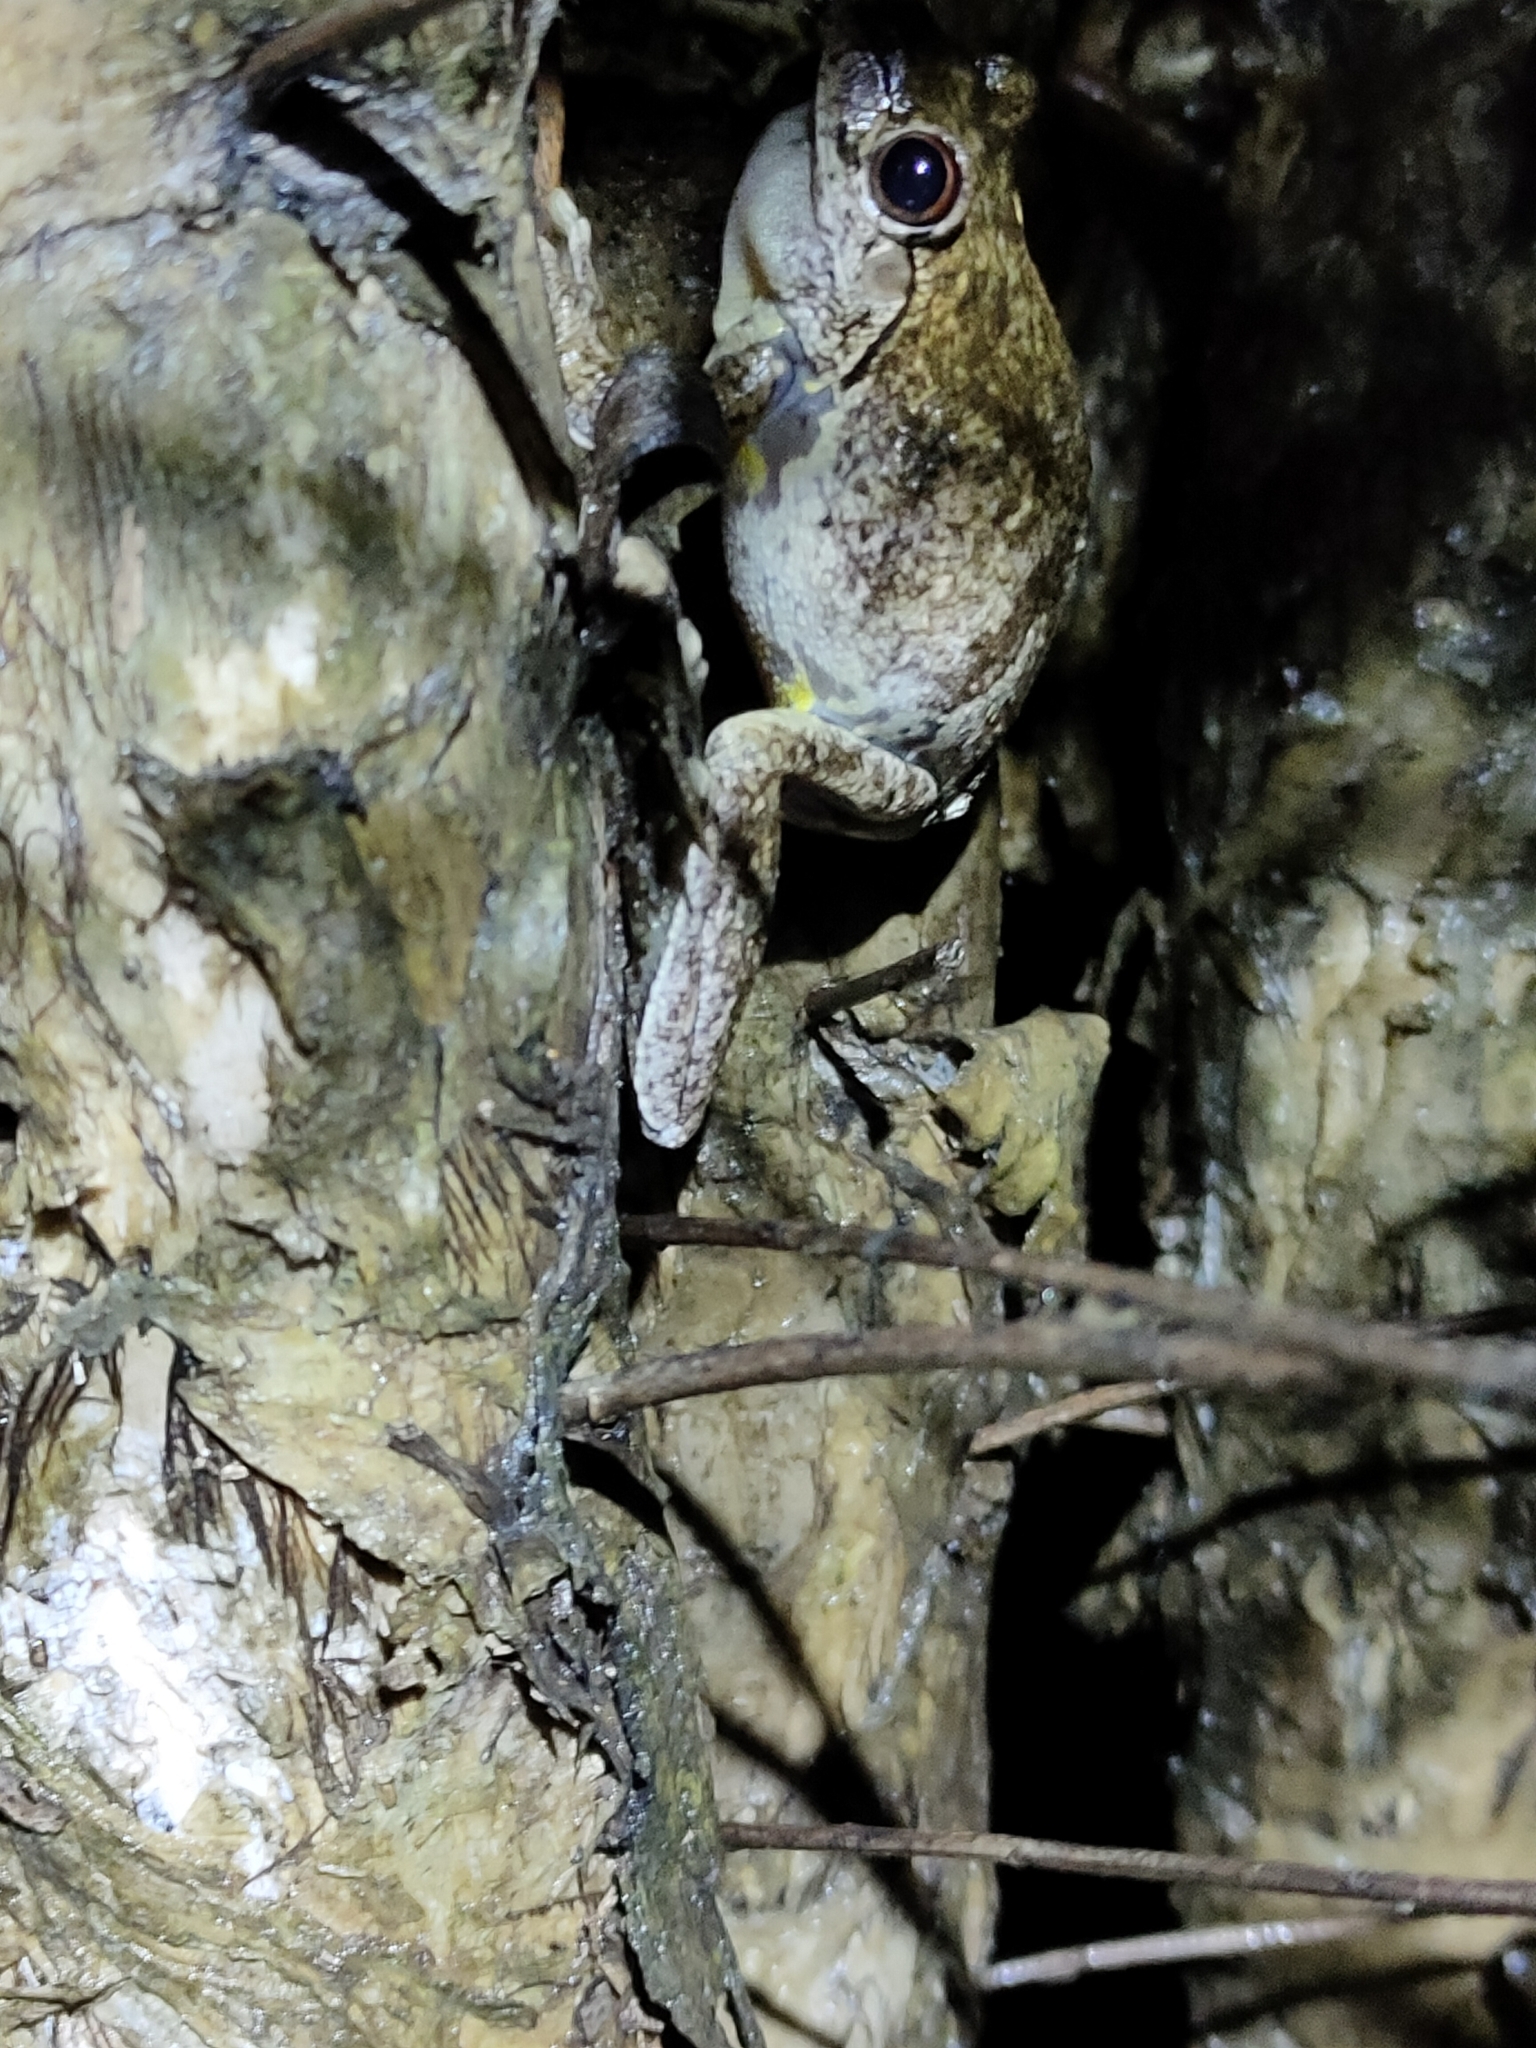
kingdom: Animalia
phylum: Chordata
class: Amphibia
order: Anura
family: Pelodryadidae
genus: Litoria
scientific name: Litoria rothii
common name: Roth’s tree frog
